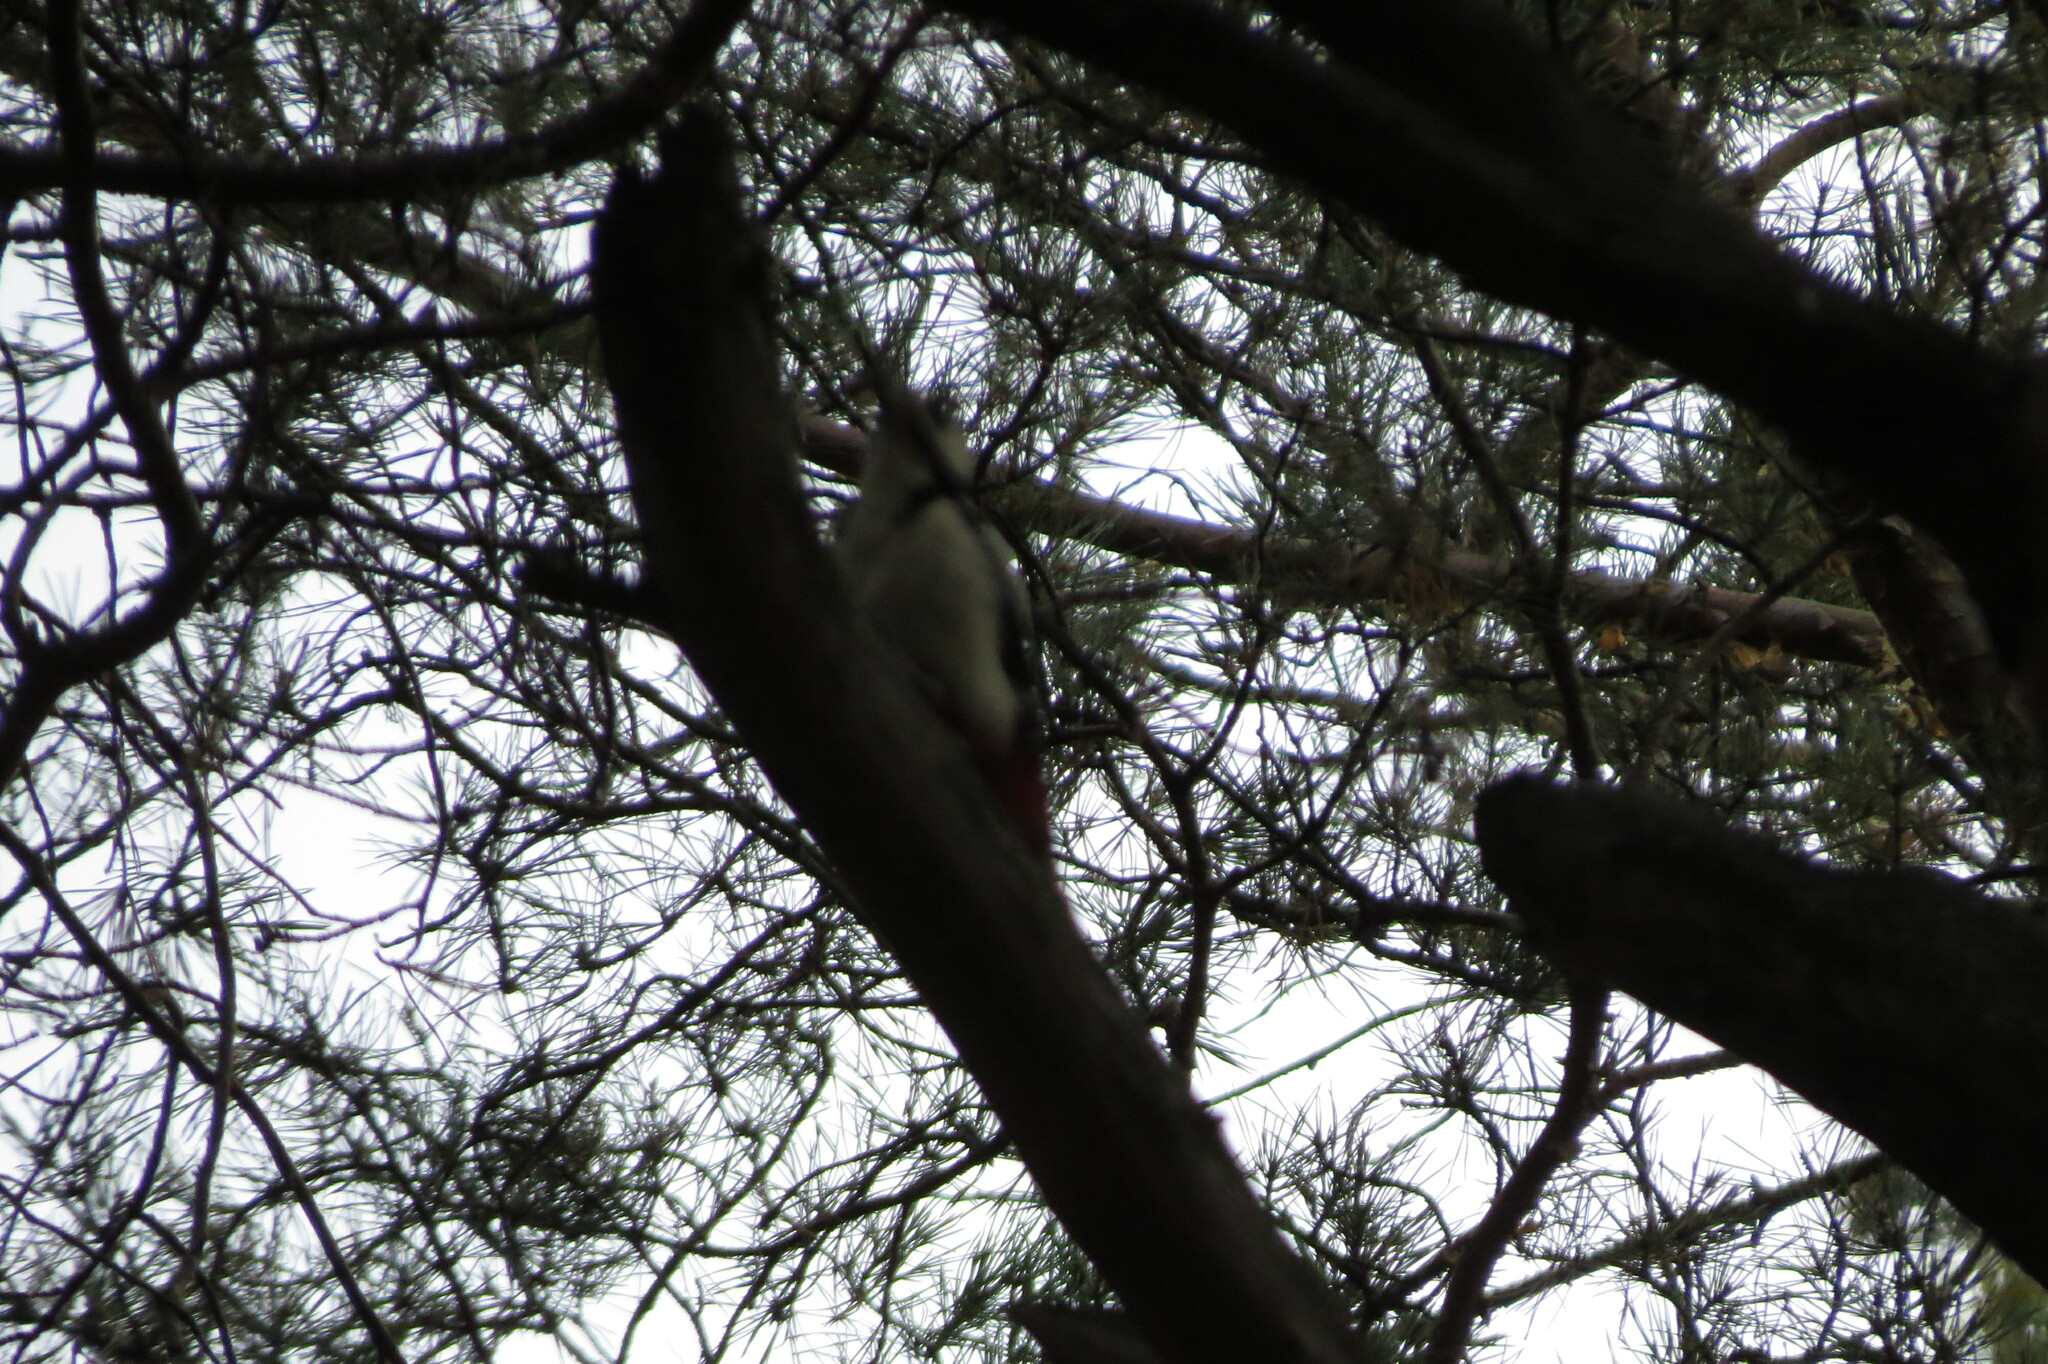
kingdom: Animalia
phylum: Chordata
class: Aves
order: Piciformes
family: Picidae
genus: Dendrocopos
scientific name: Dendrocopos major
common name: Great spotted woodpecker
